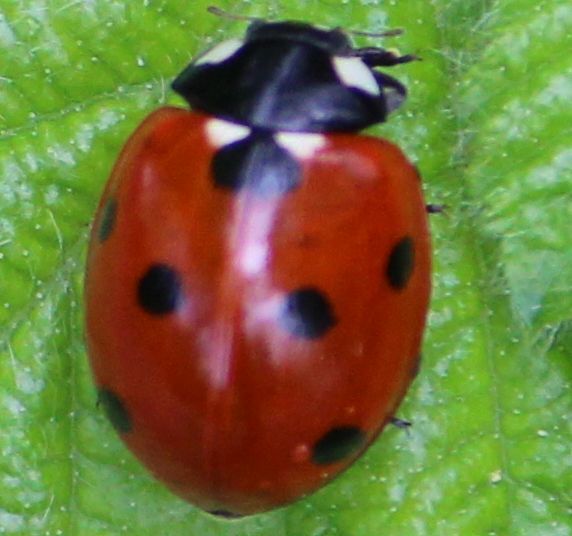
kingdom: Animalia
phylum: Arthropoda
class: Insecta
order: Coleoptera
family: Coccinellidae
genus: Coccinella
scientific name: Coccinella septempunctata
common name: Sevenspotted lady beetle
